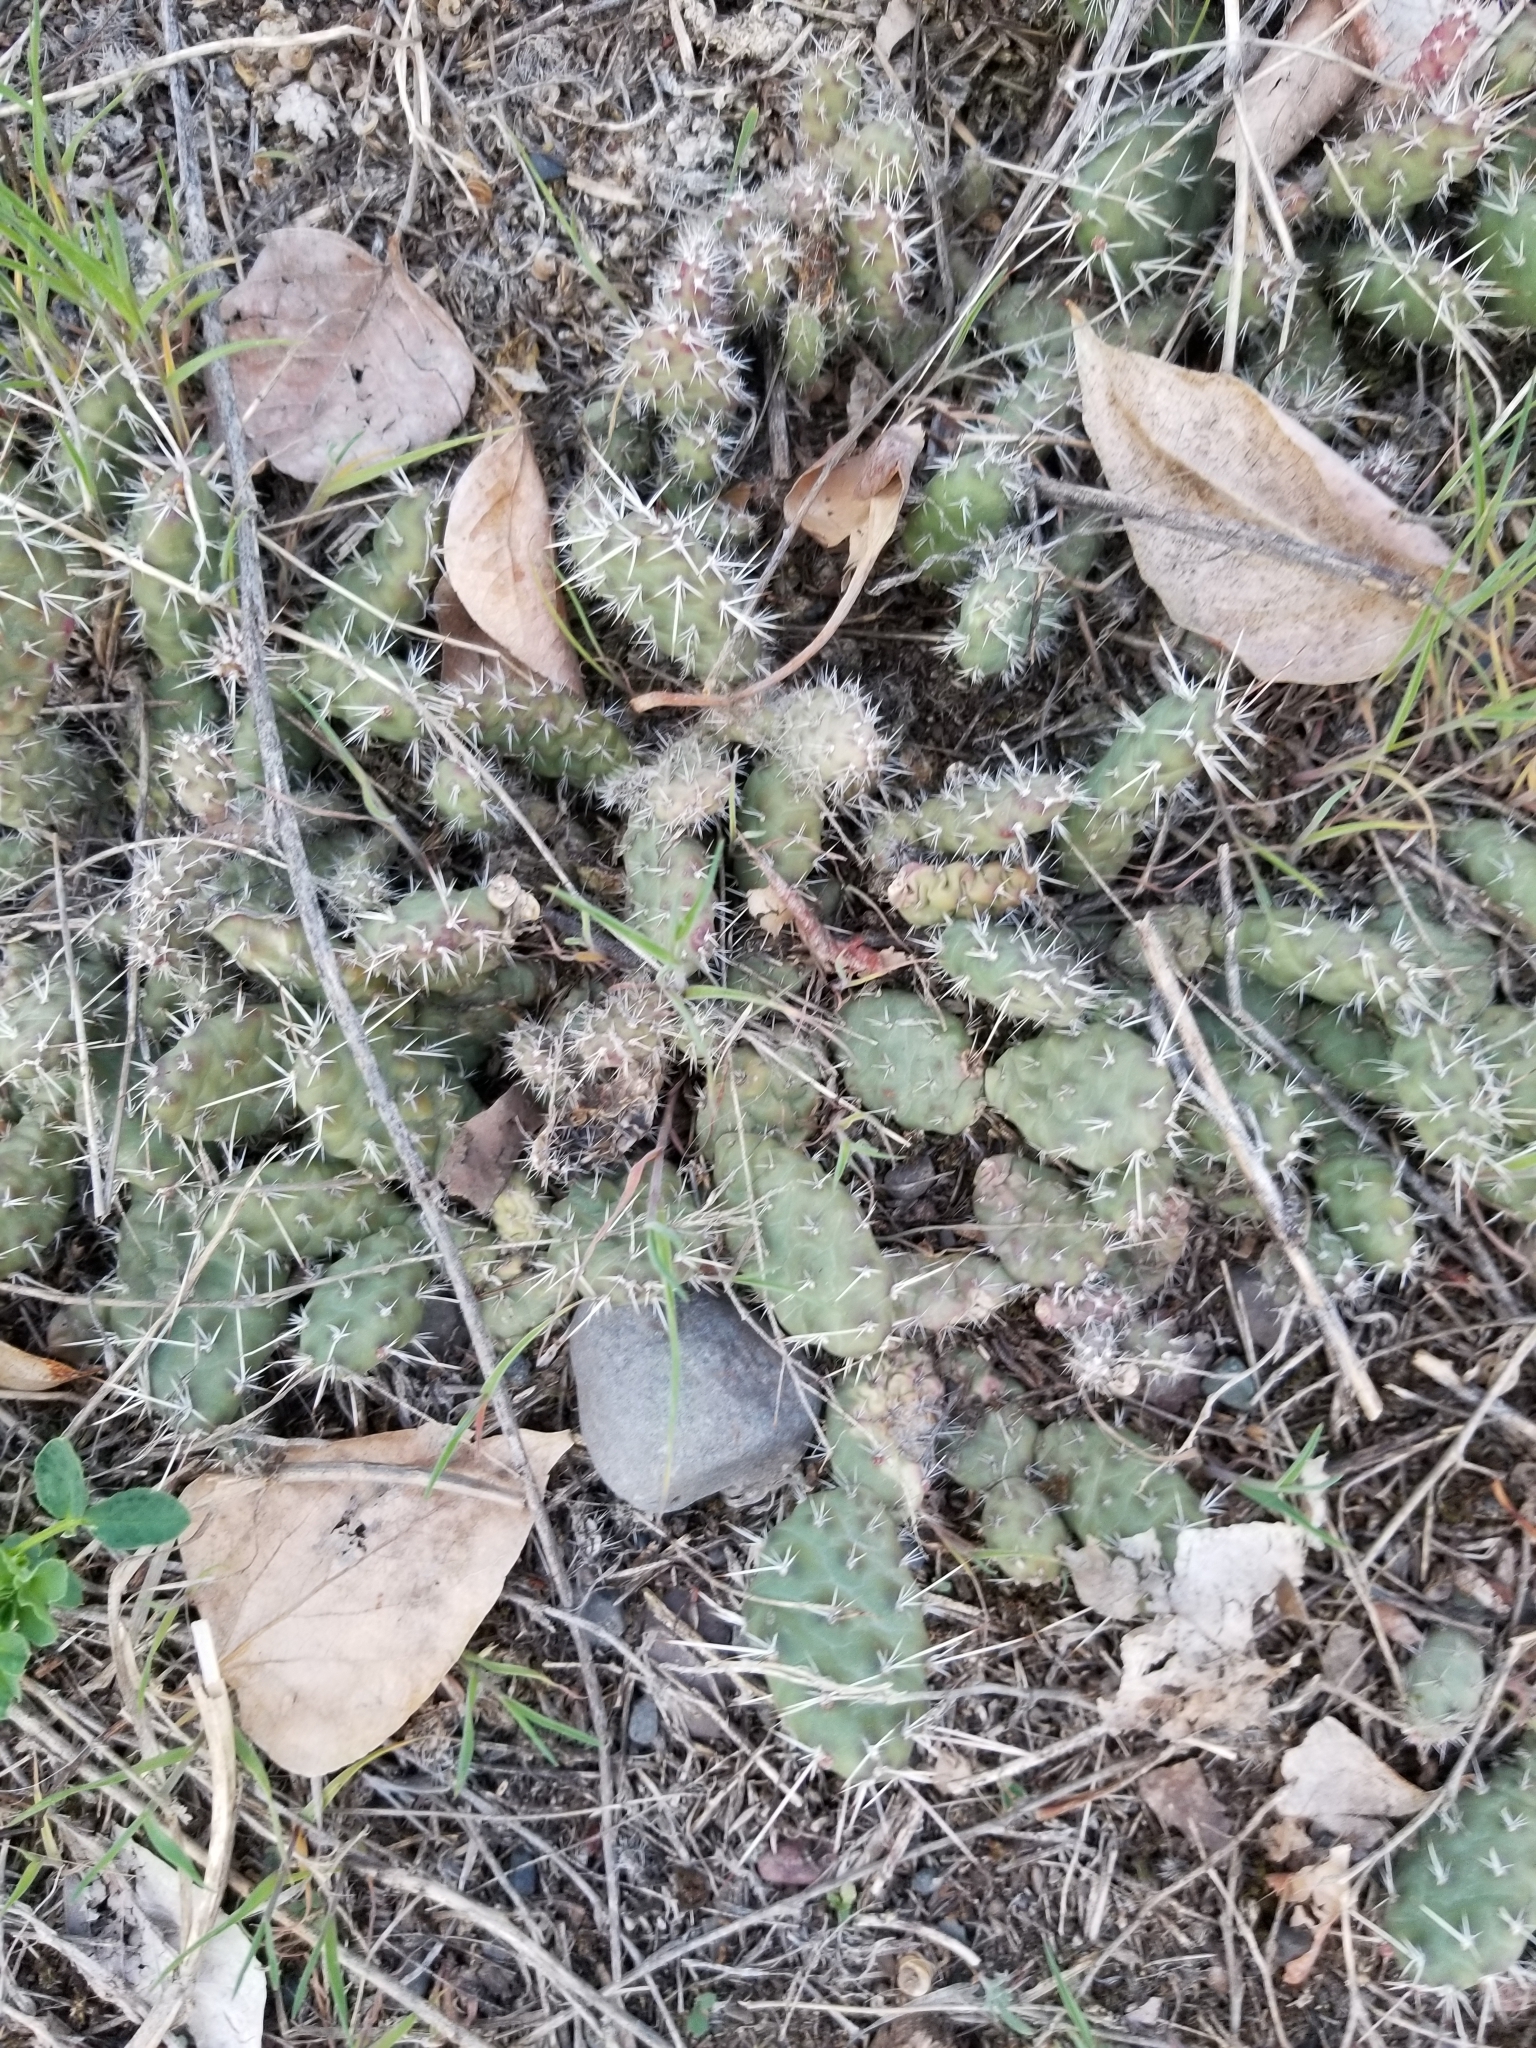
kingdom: Plantae
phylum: Tracheophyta
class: Magnoliopsida
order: Caryophyllales
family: Cactaceae
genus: Opuntia
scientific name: Opuntia fragilis
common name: Brittle cactus
